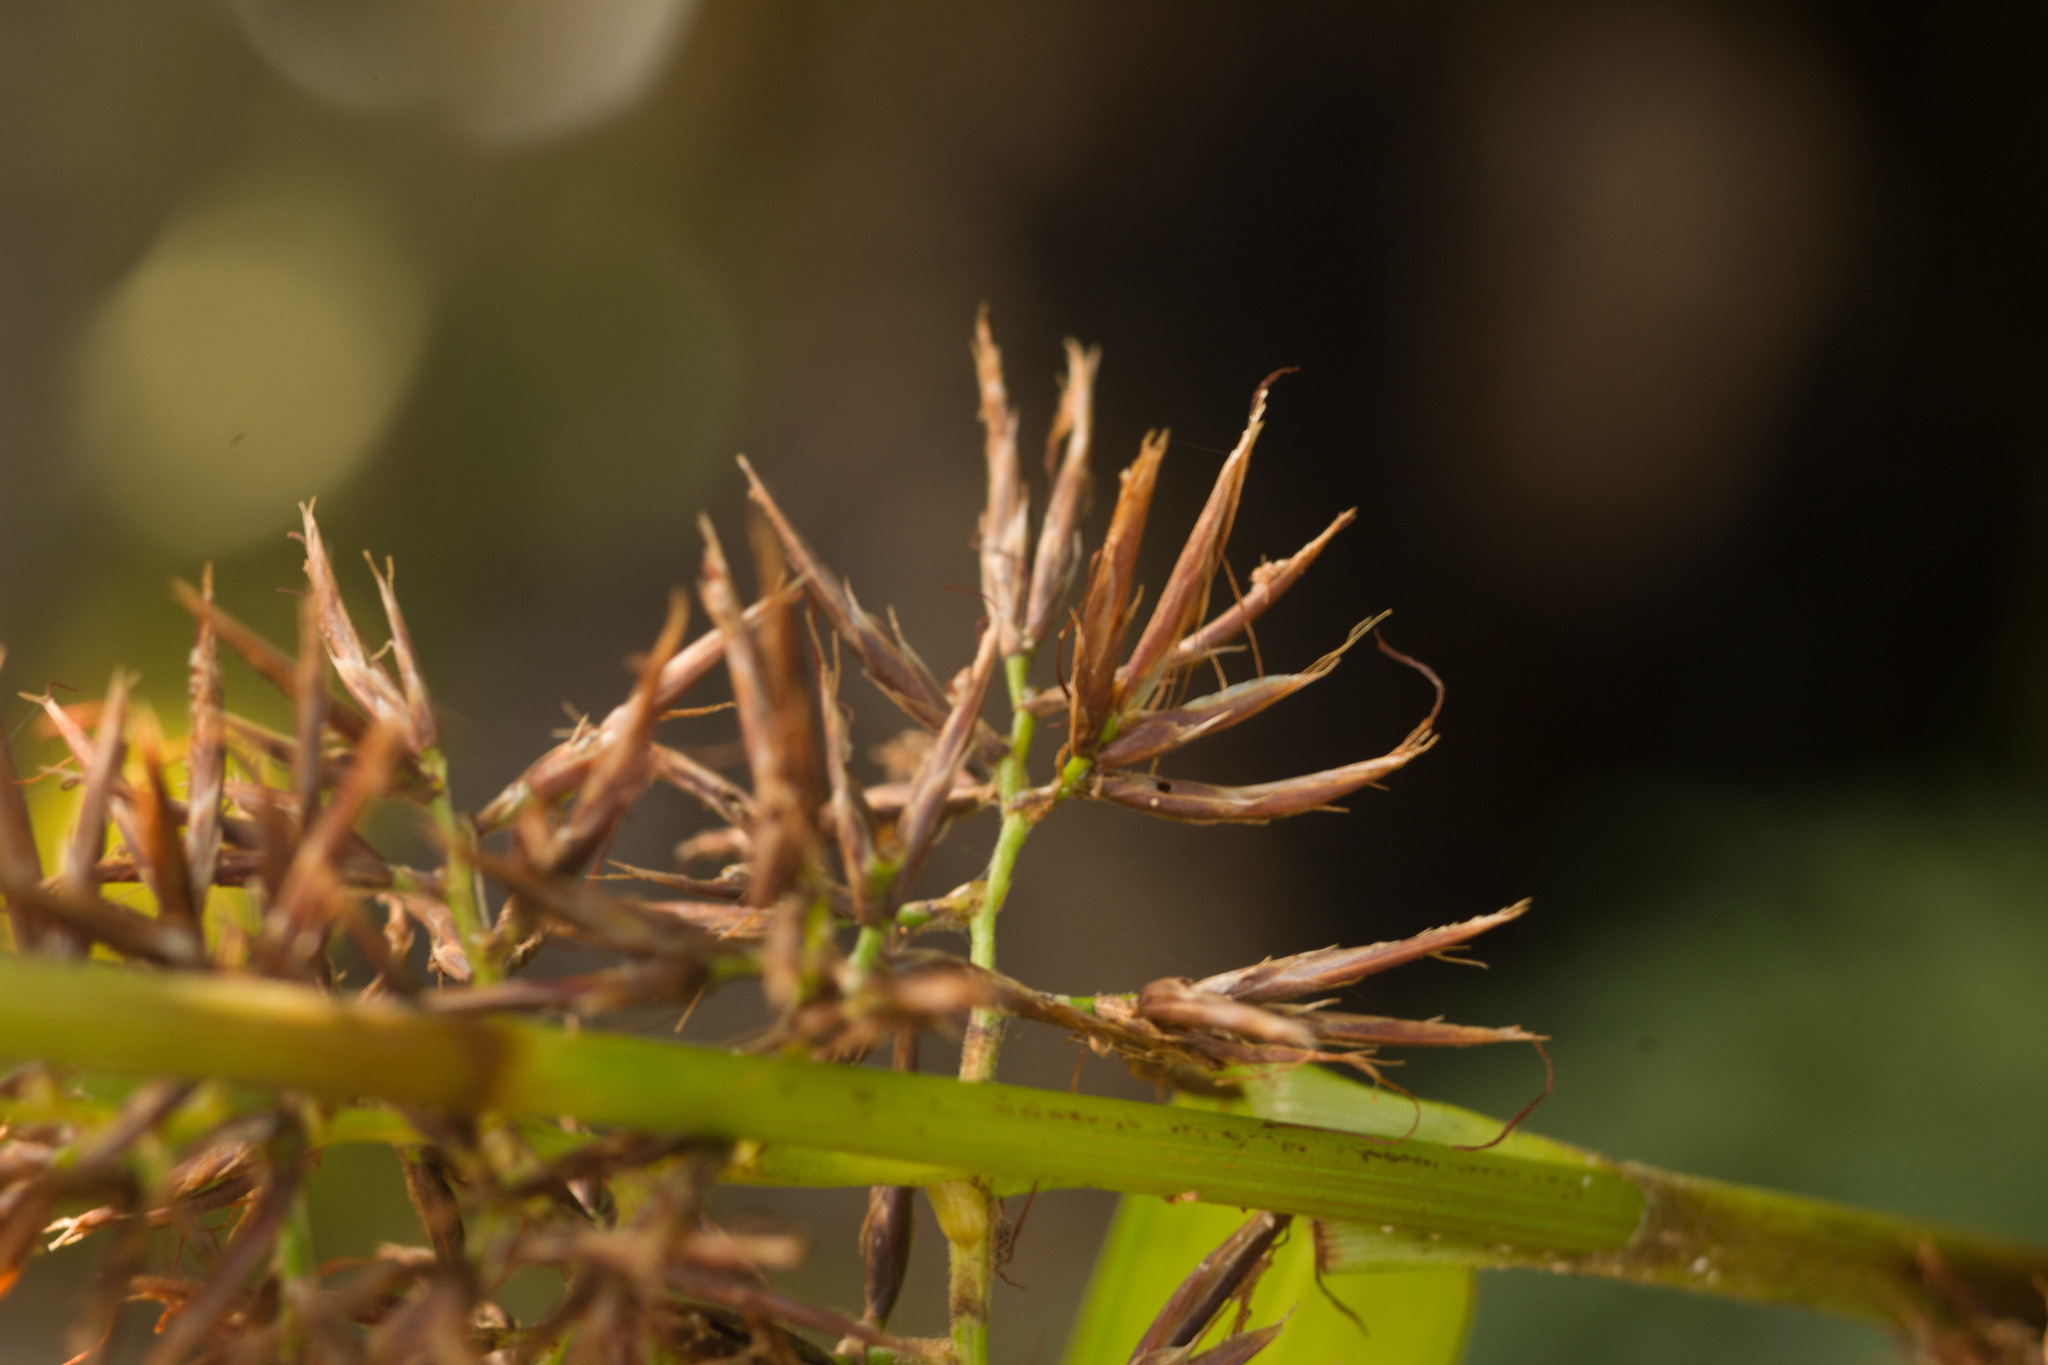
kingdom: Plantae
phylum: Tracheophyta
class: Liliopsida
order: Poales
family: Cyperaceae
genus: Rhynchospora
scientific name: Rhynchospora sclerioides
